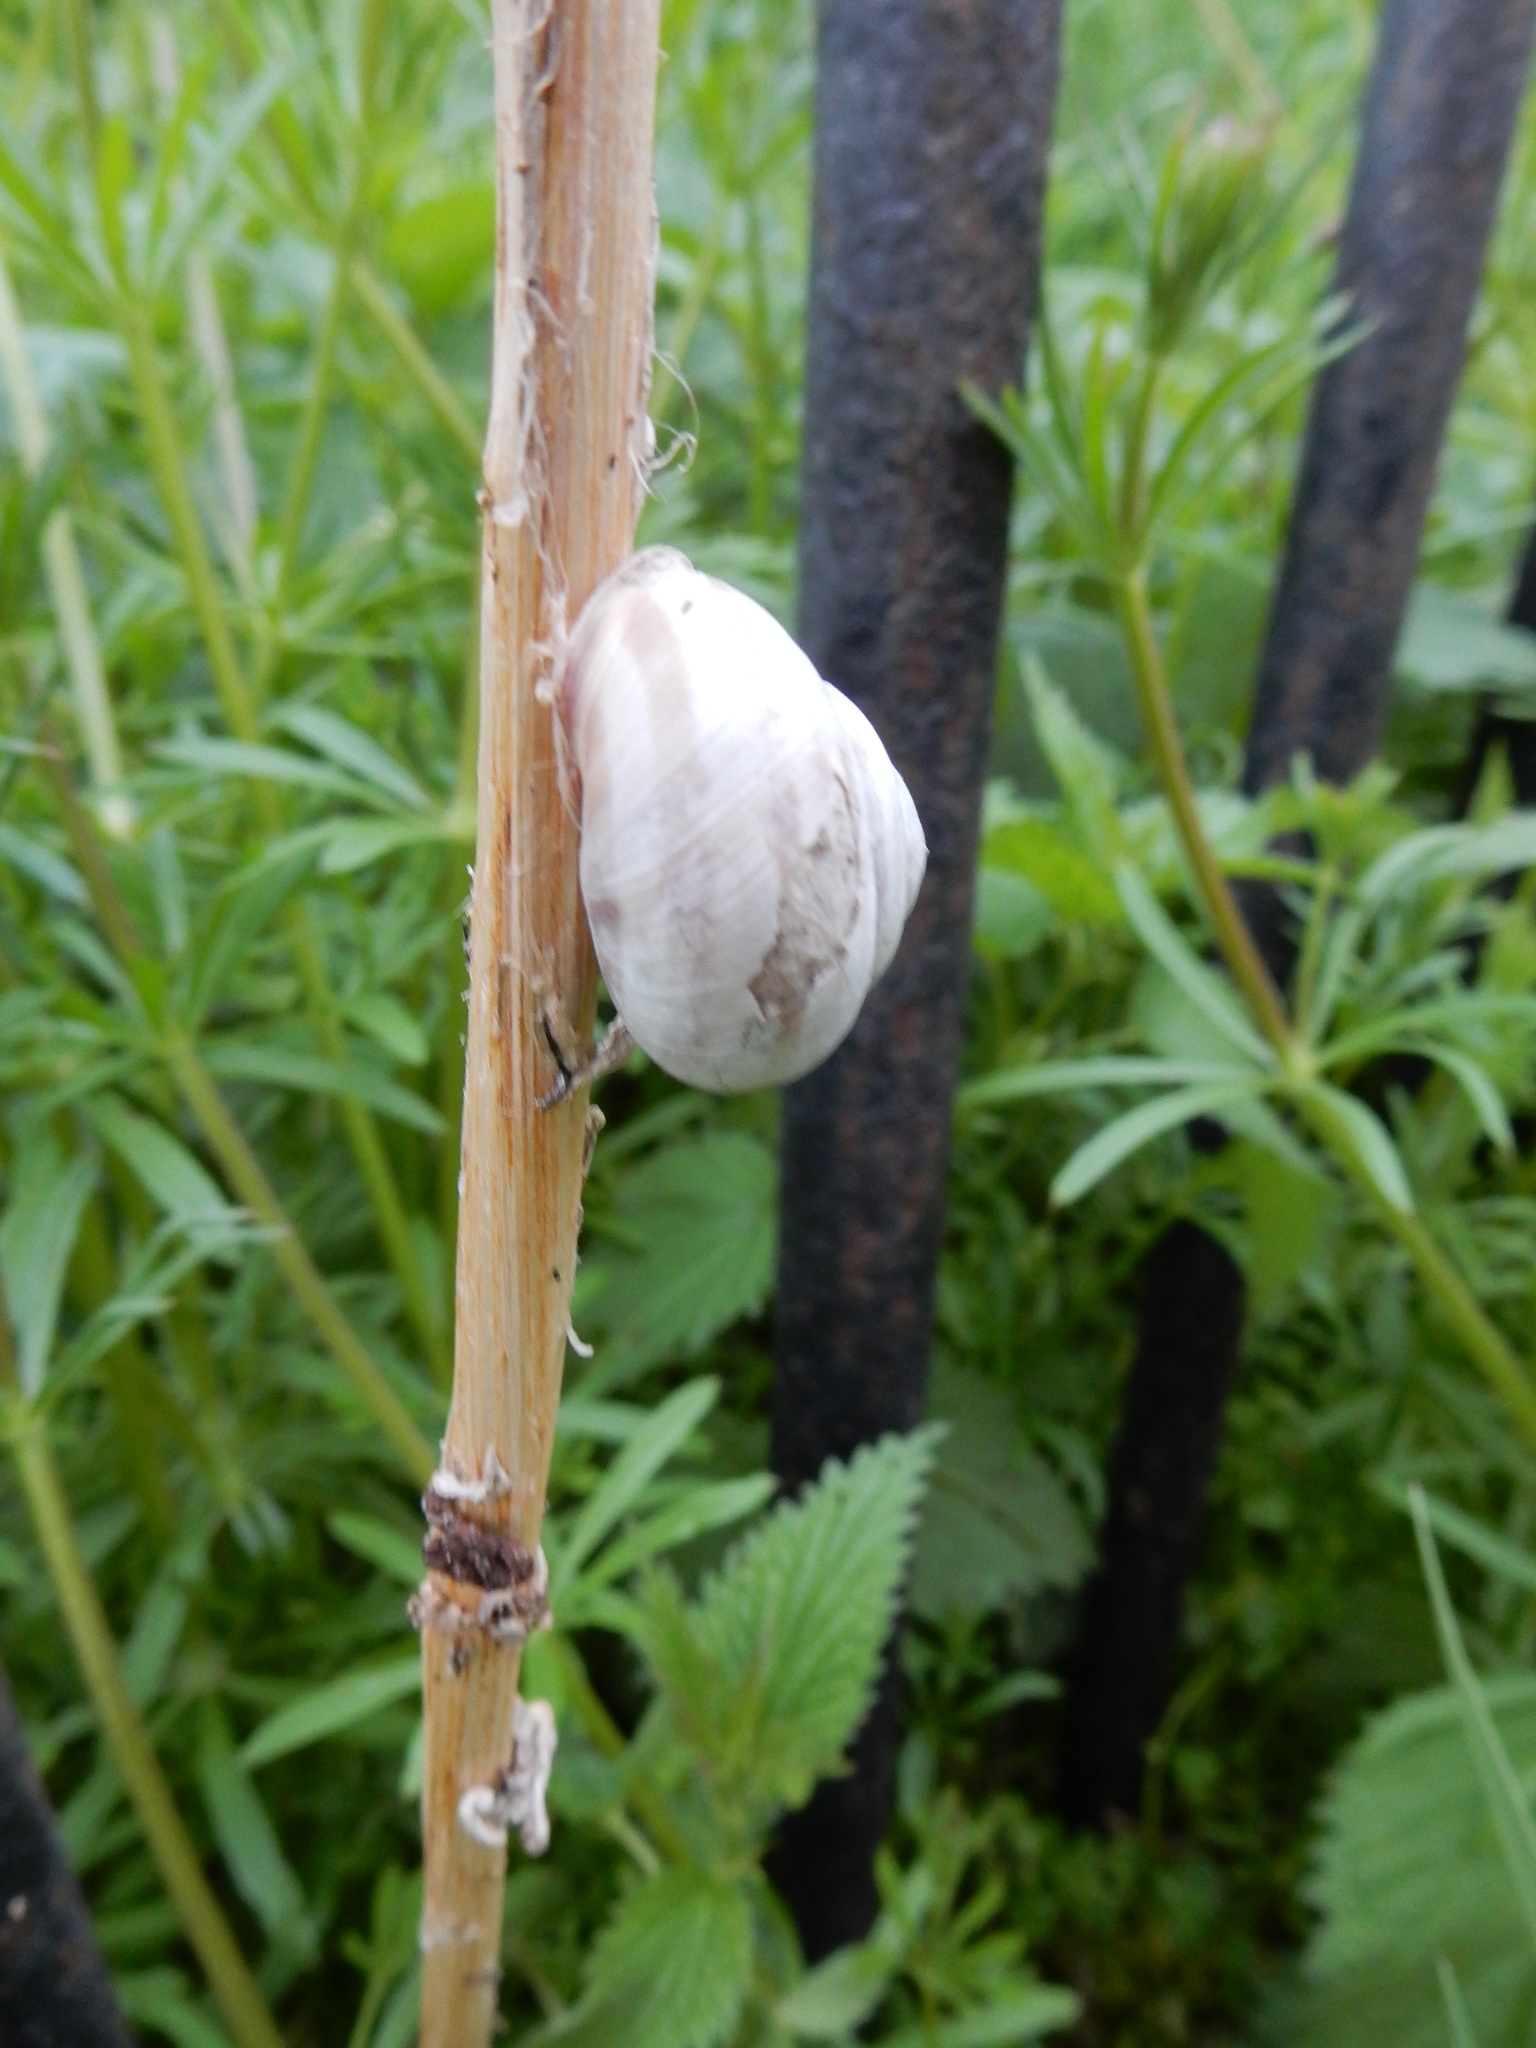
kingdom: Animalia
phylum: Mollusca
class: Gastropoda
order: Stylommatophora
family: Helicidae
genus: Caucasotachea
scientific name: Caucasotachea vindobonensis
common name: European helicid land snail
